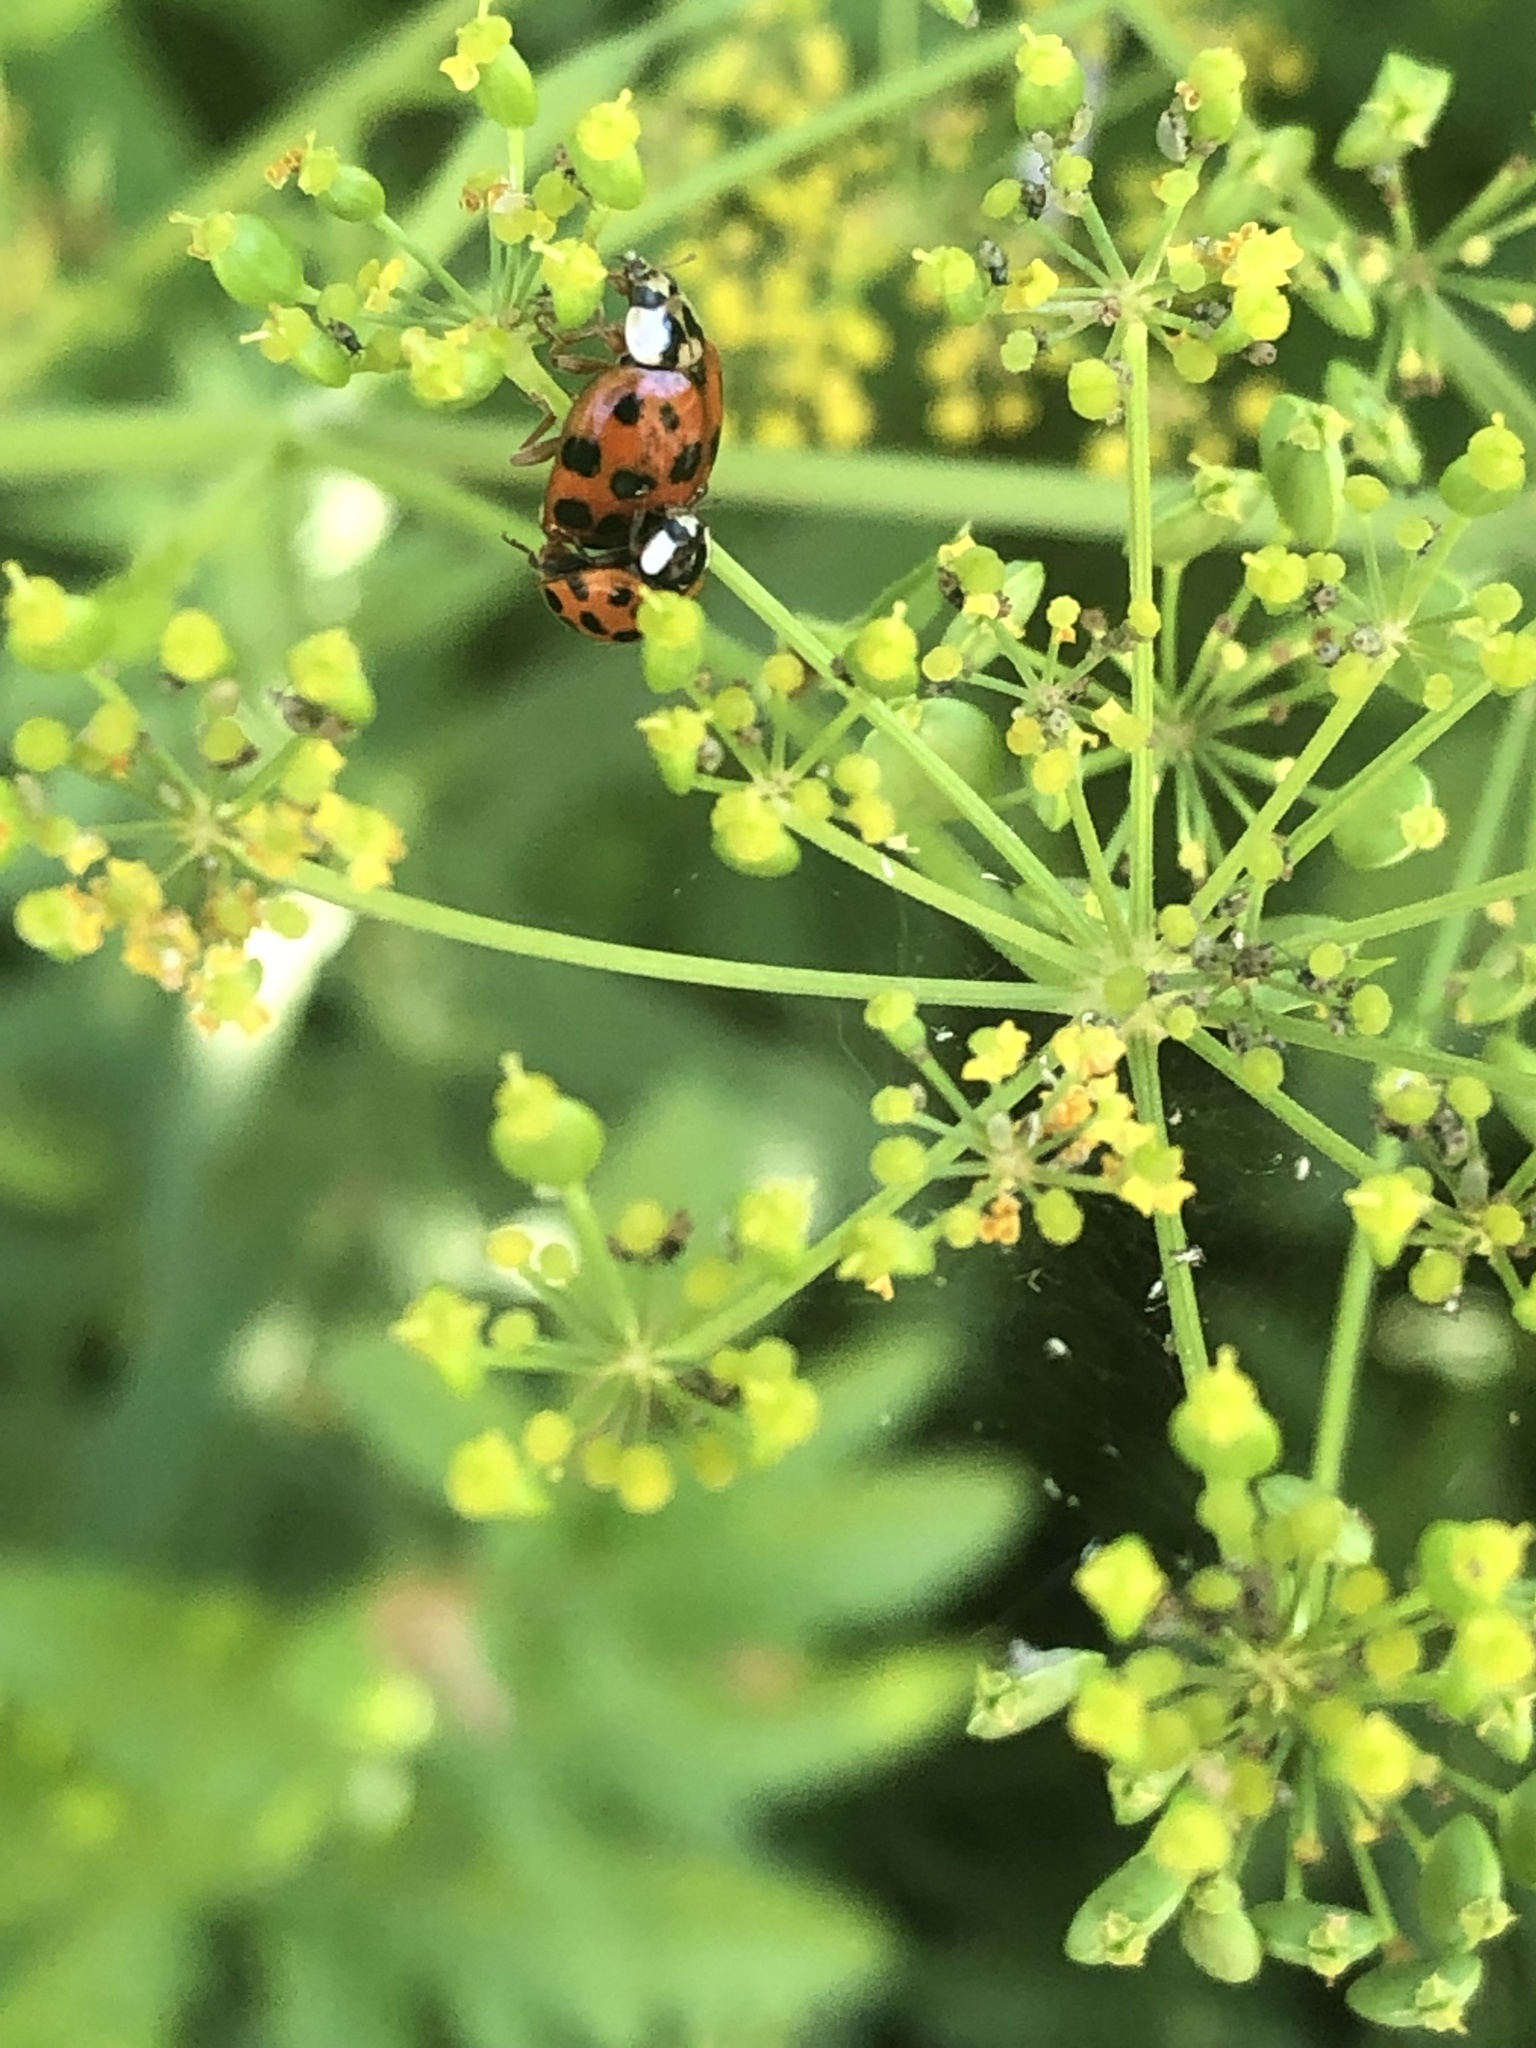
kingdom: Animalia
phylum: Arthropoda
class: Insecta
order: Coleoptera
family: Coccinellidae
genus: Harmonia
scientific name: Harmonia axyridis
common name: Harlequin ladybird
